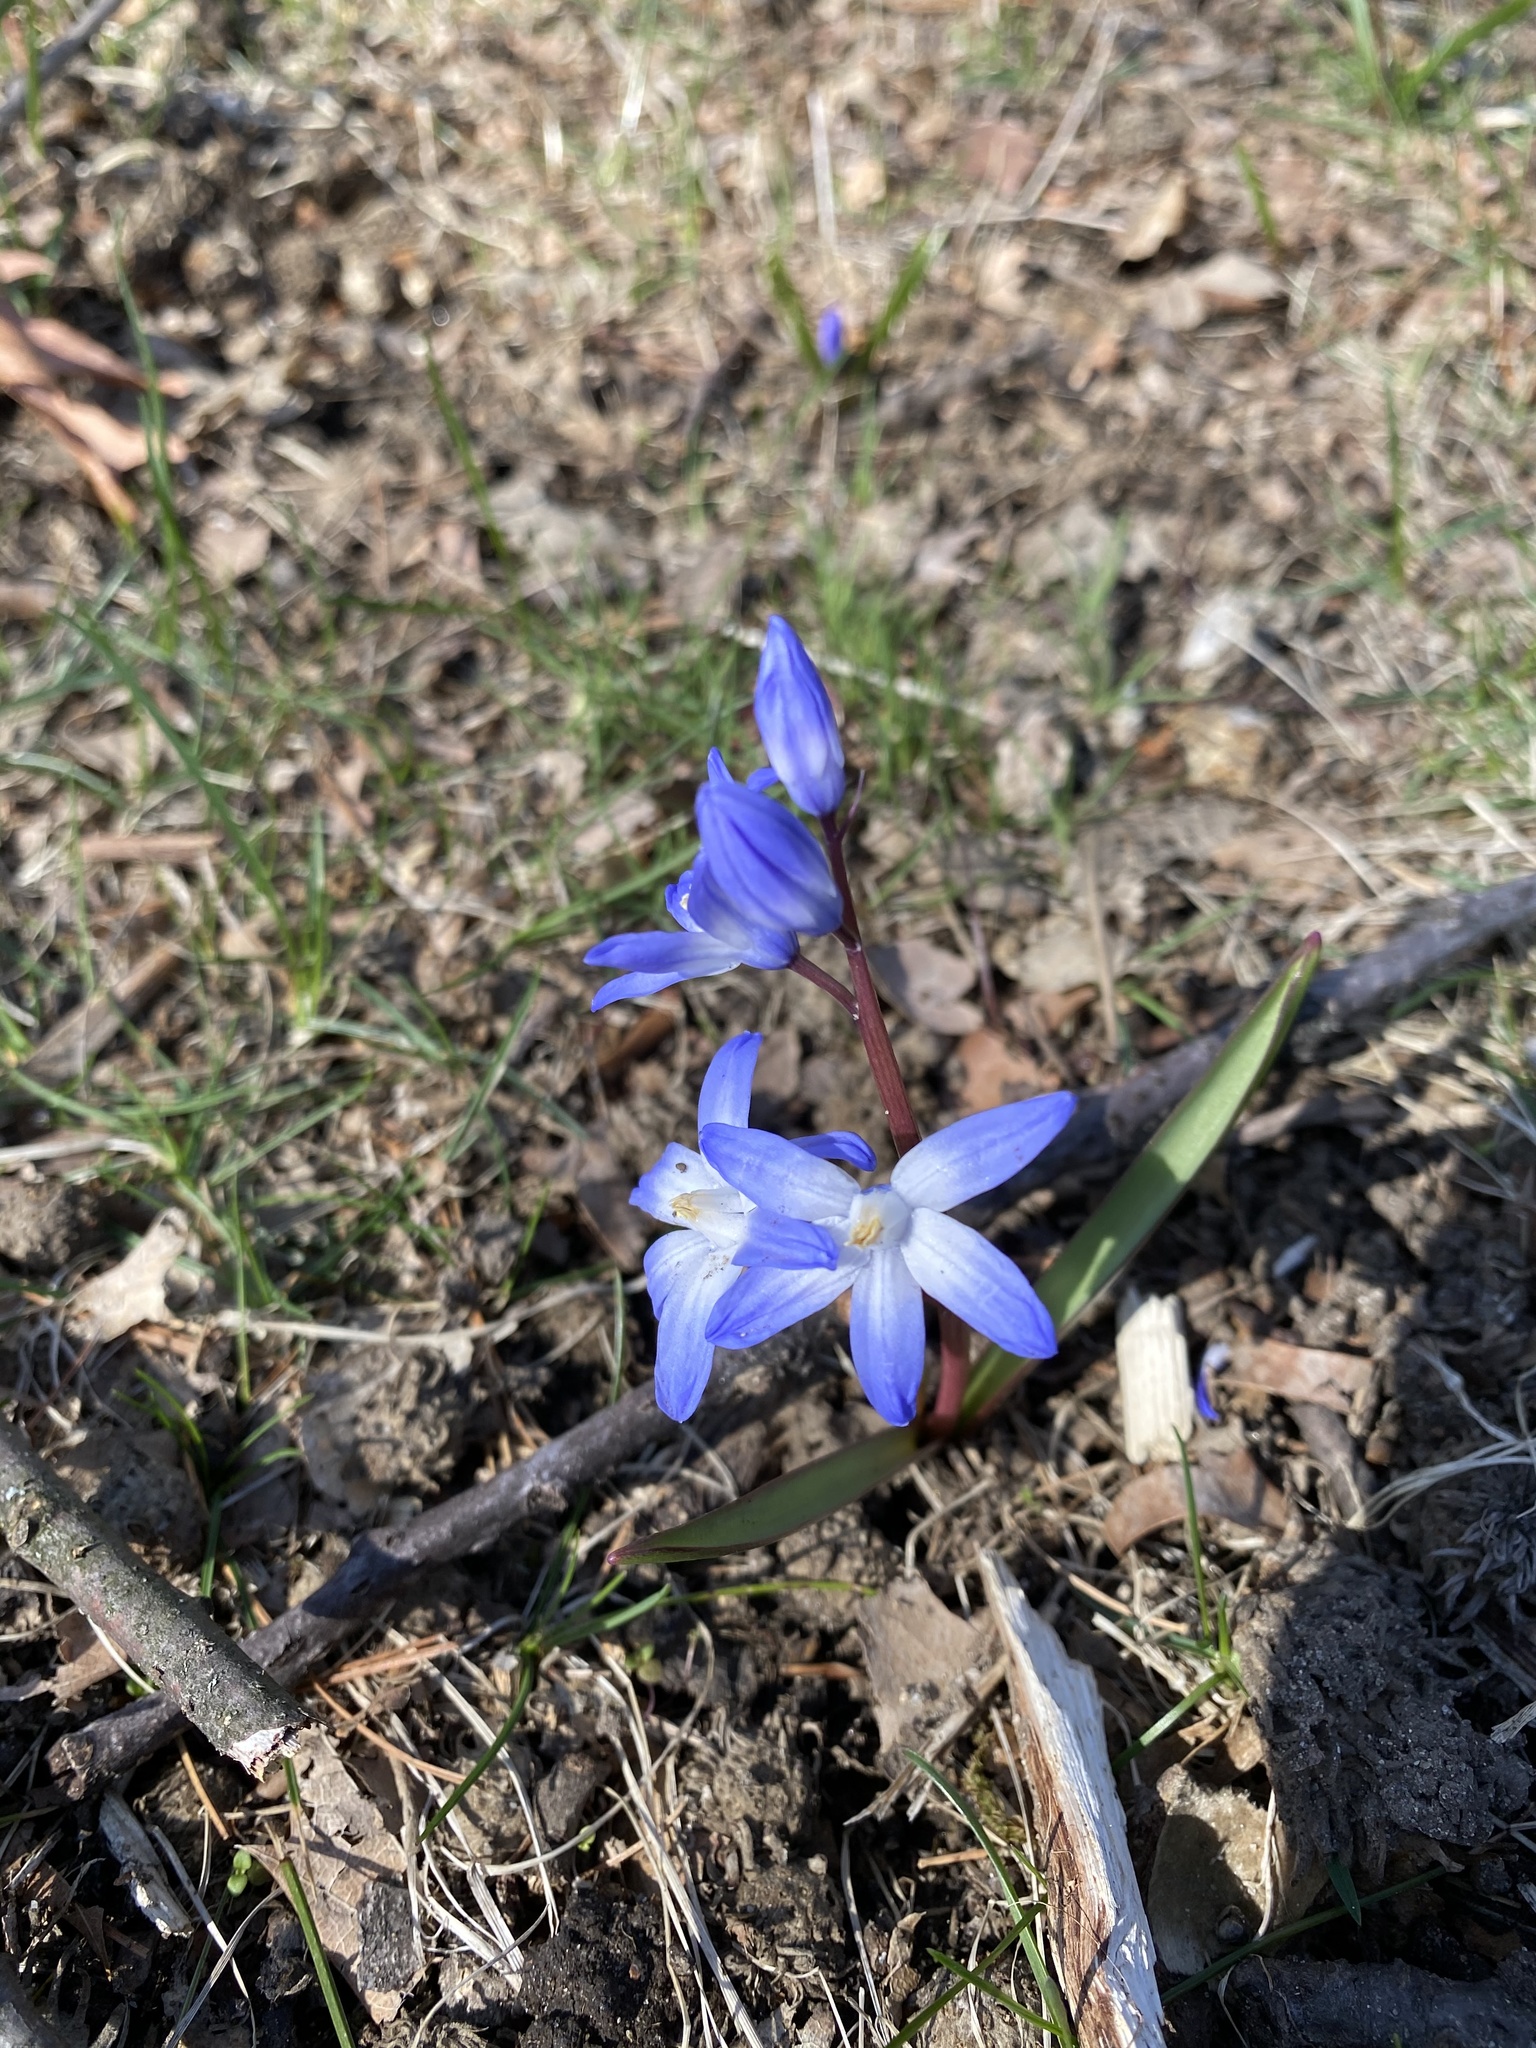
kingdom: Plantae
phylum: Tracheophyta
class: Liliopsida
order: Asparagales
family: Asparagaceae
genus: Scilla
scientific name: Scilla forbesii
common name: Glory-of-the-snow
